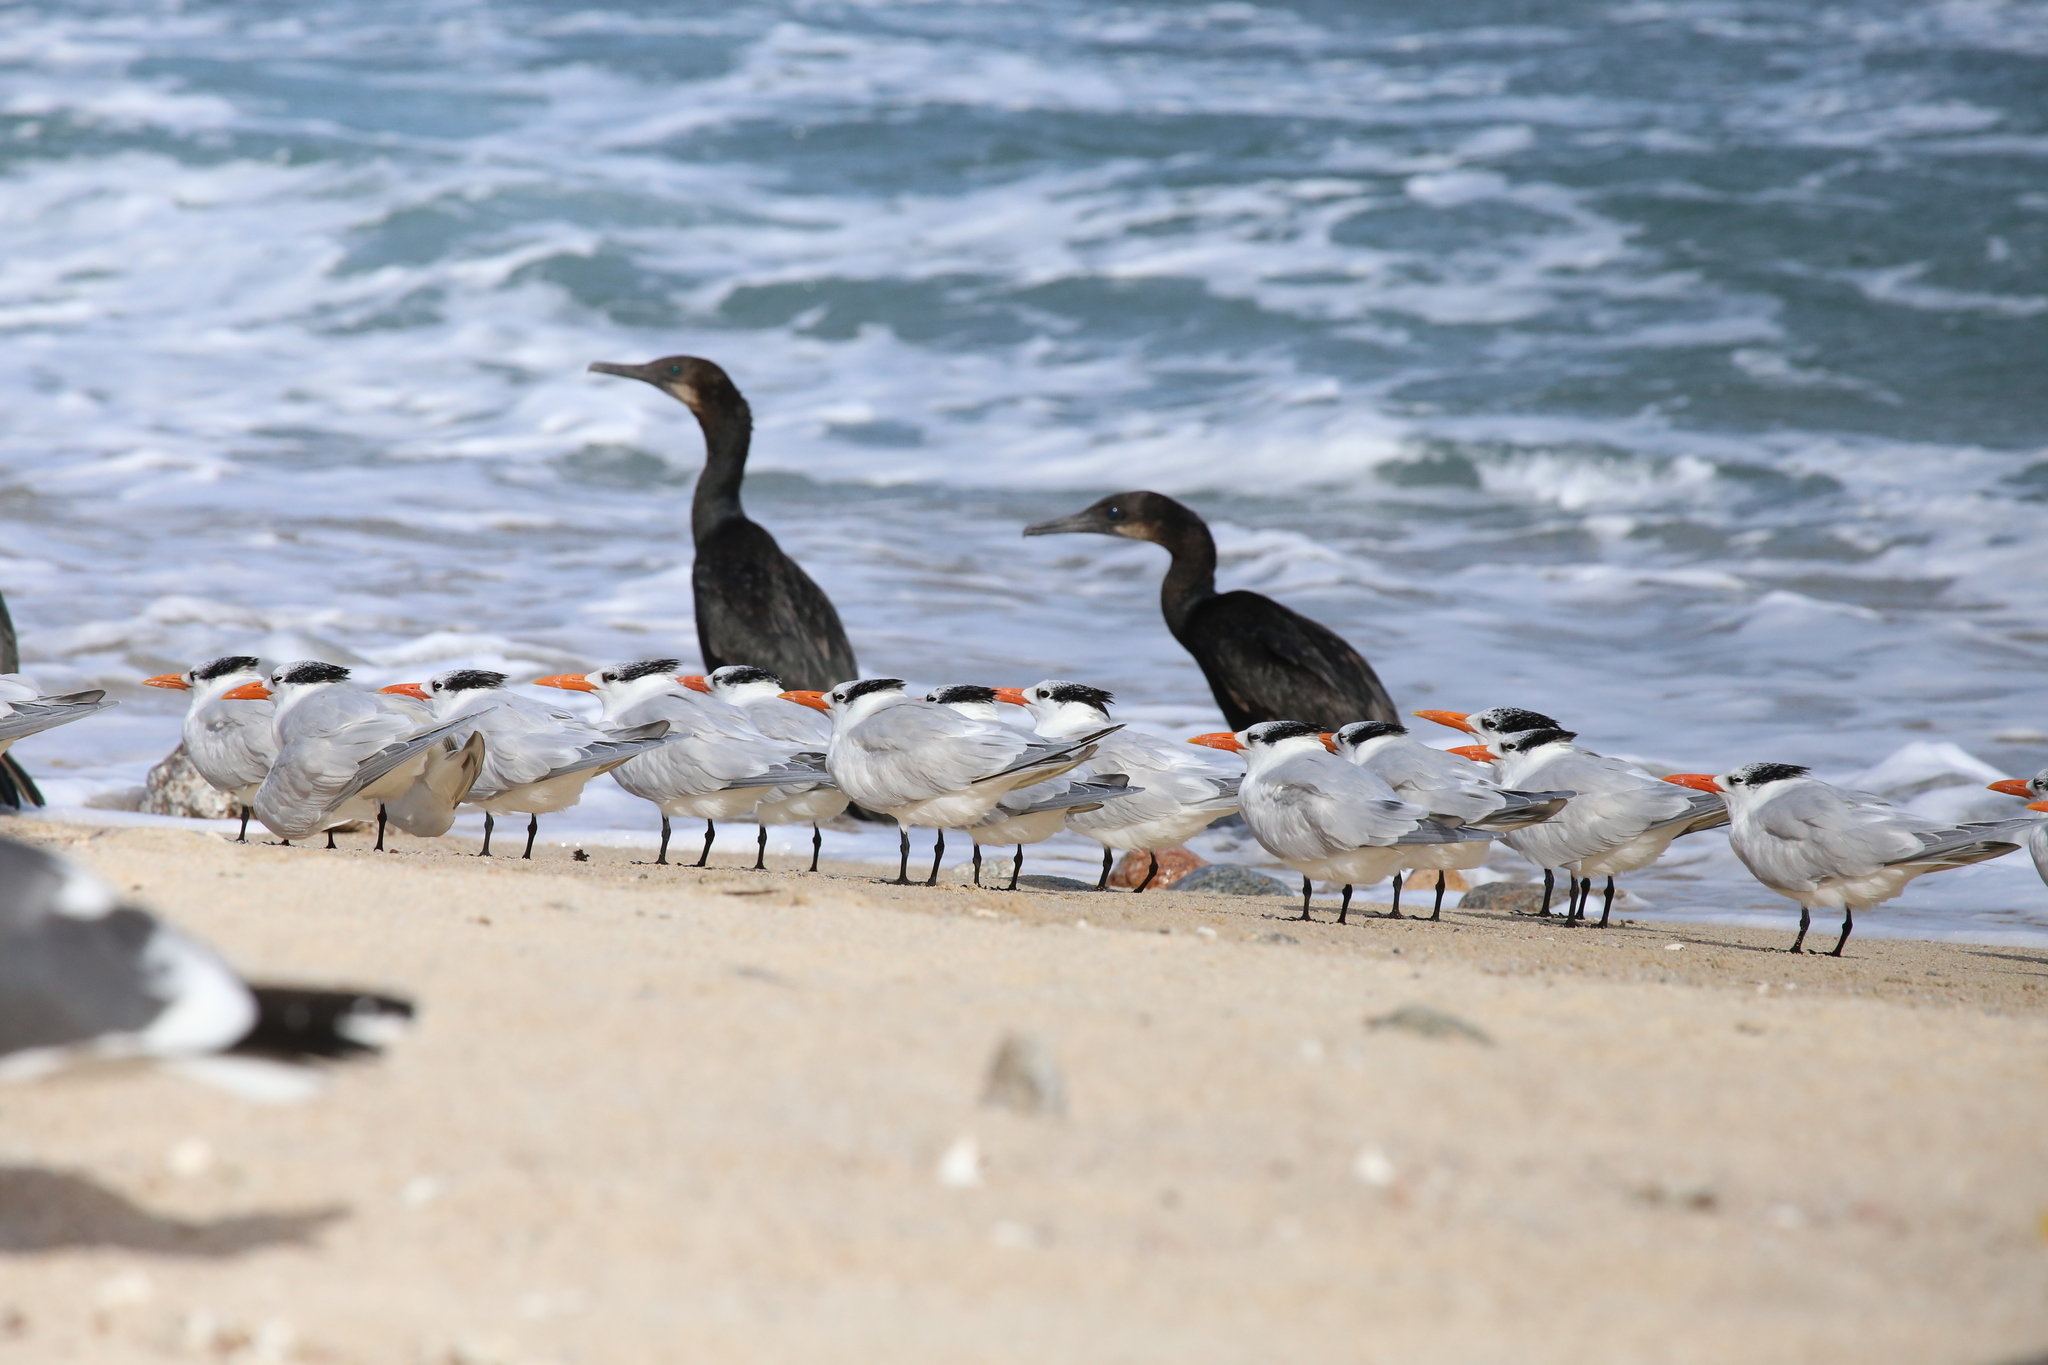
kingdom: Animalia
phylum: Chordata
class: Aves
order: Charadriiformes
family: Laridae
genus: Thalasseus
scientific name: Thalasseus maximus
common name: Royal tern
